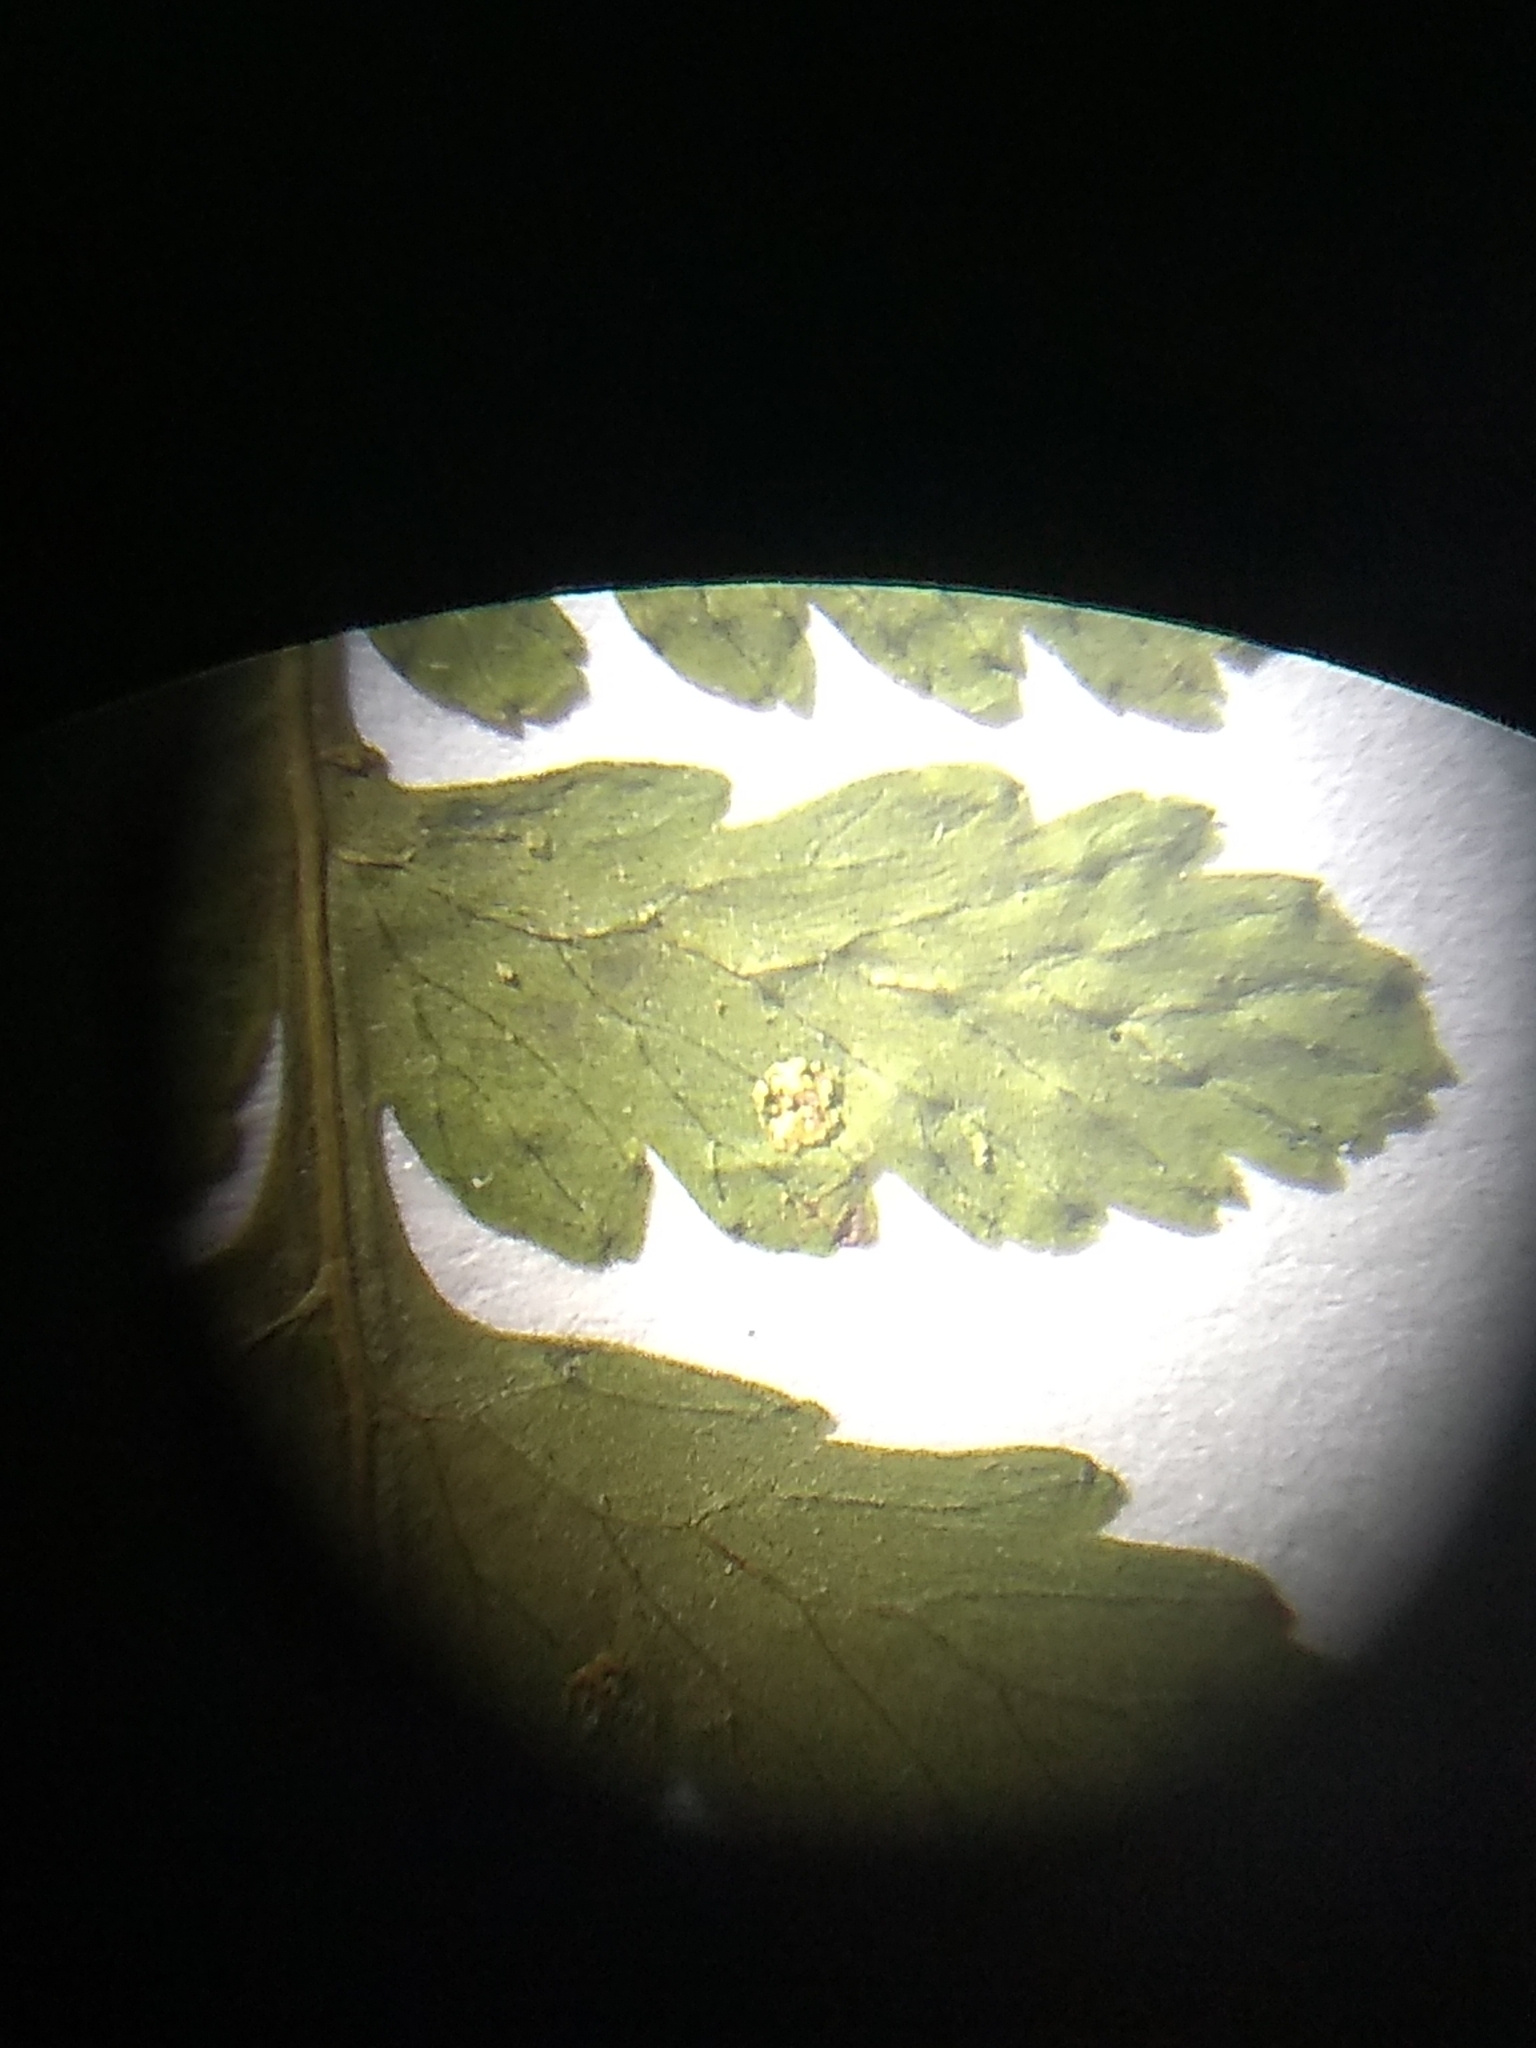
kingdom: Plantae
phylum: Tracheophyta
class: Polypodiopsida
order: Polypodiales
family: Cystopteridaceae
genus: Cystopteris
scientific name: Cystopteris bulbifera
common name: Bulblet bladder fern
